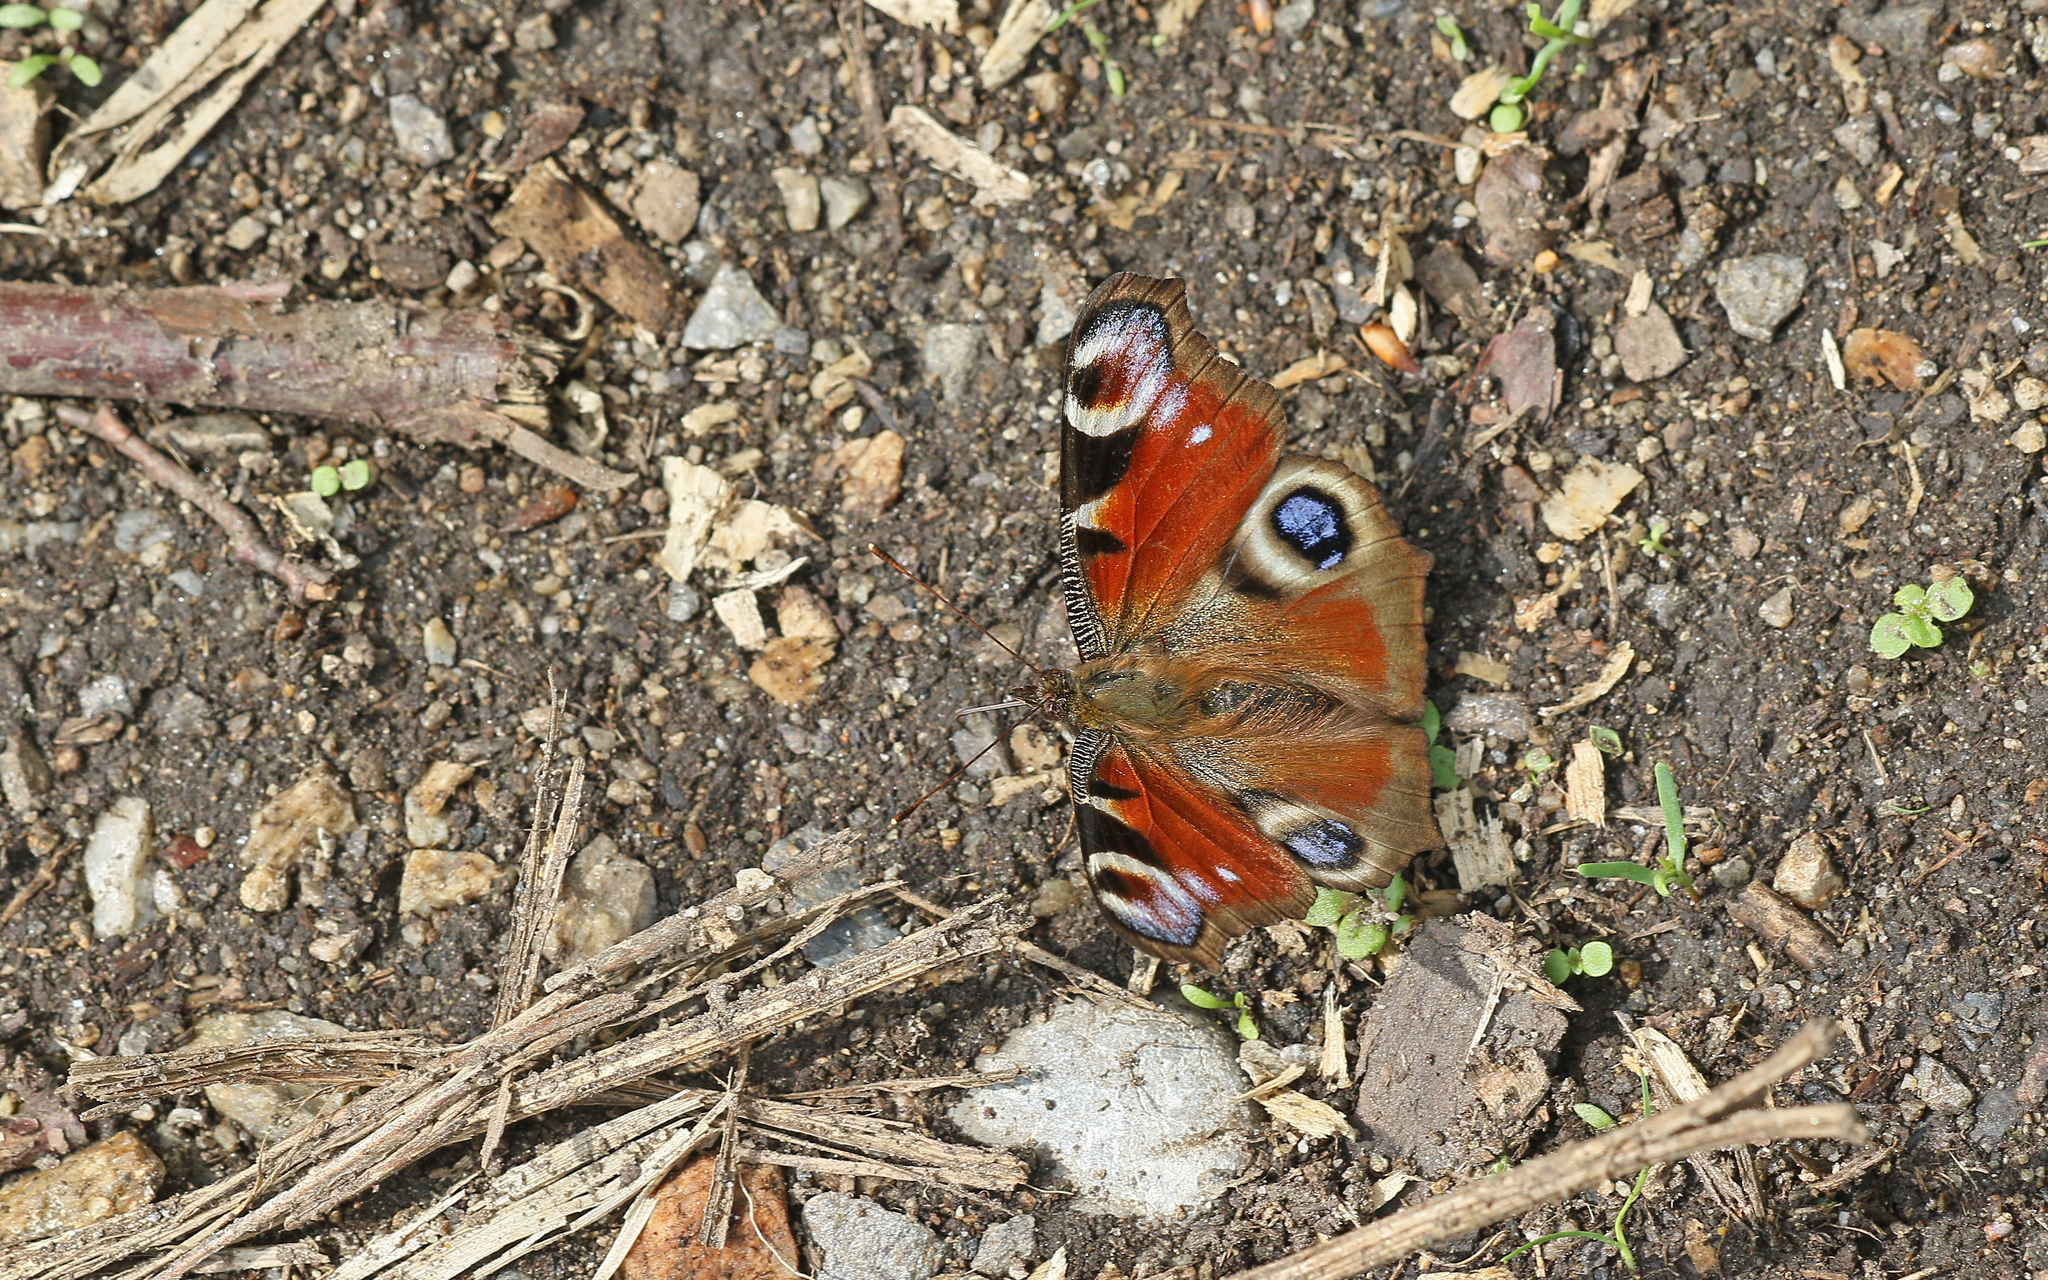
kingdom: Animalia
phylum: Arthropoda
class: Insecta
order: Lepidoptera
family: Nymphalidae
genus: Aglais
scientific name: Aglais io
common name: Peacock
